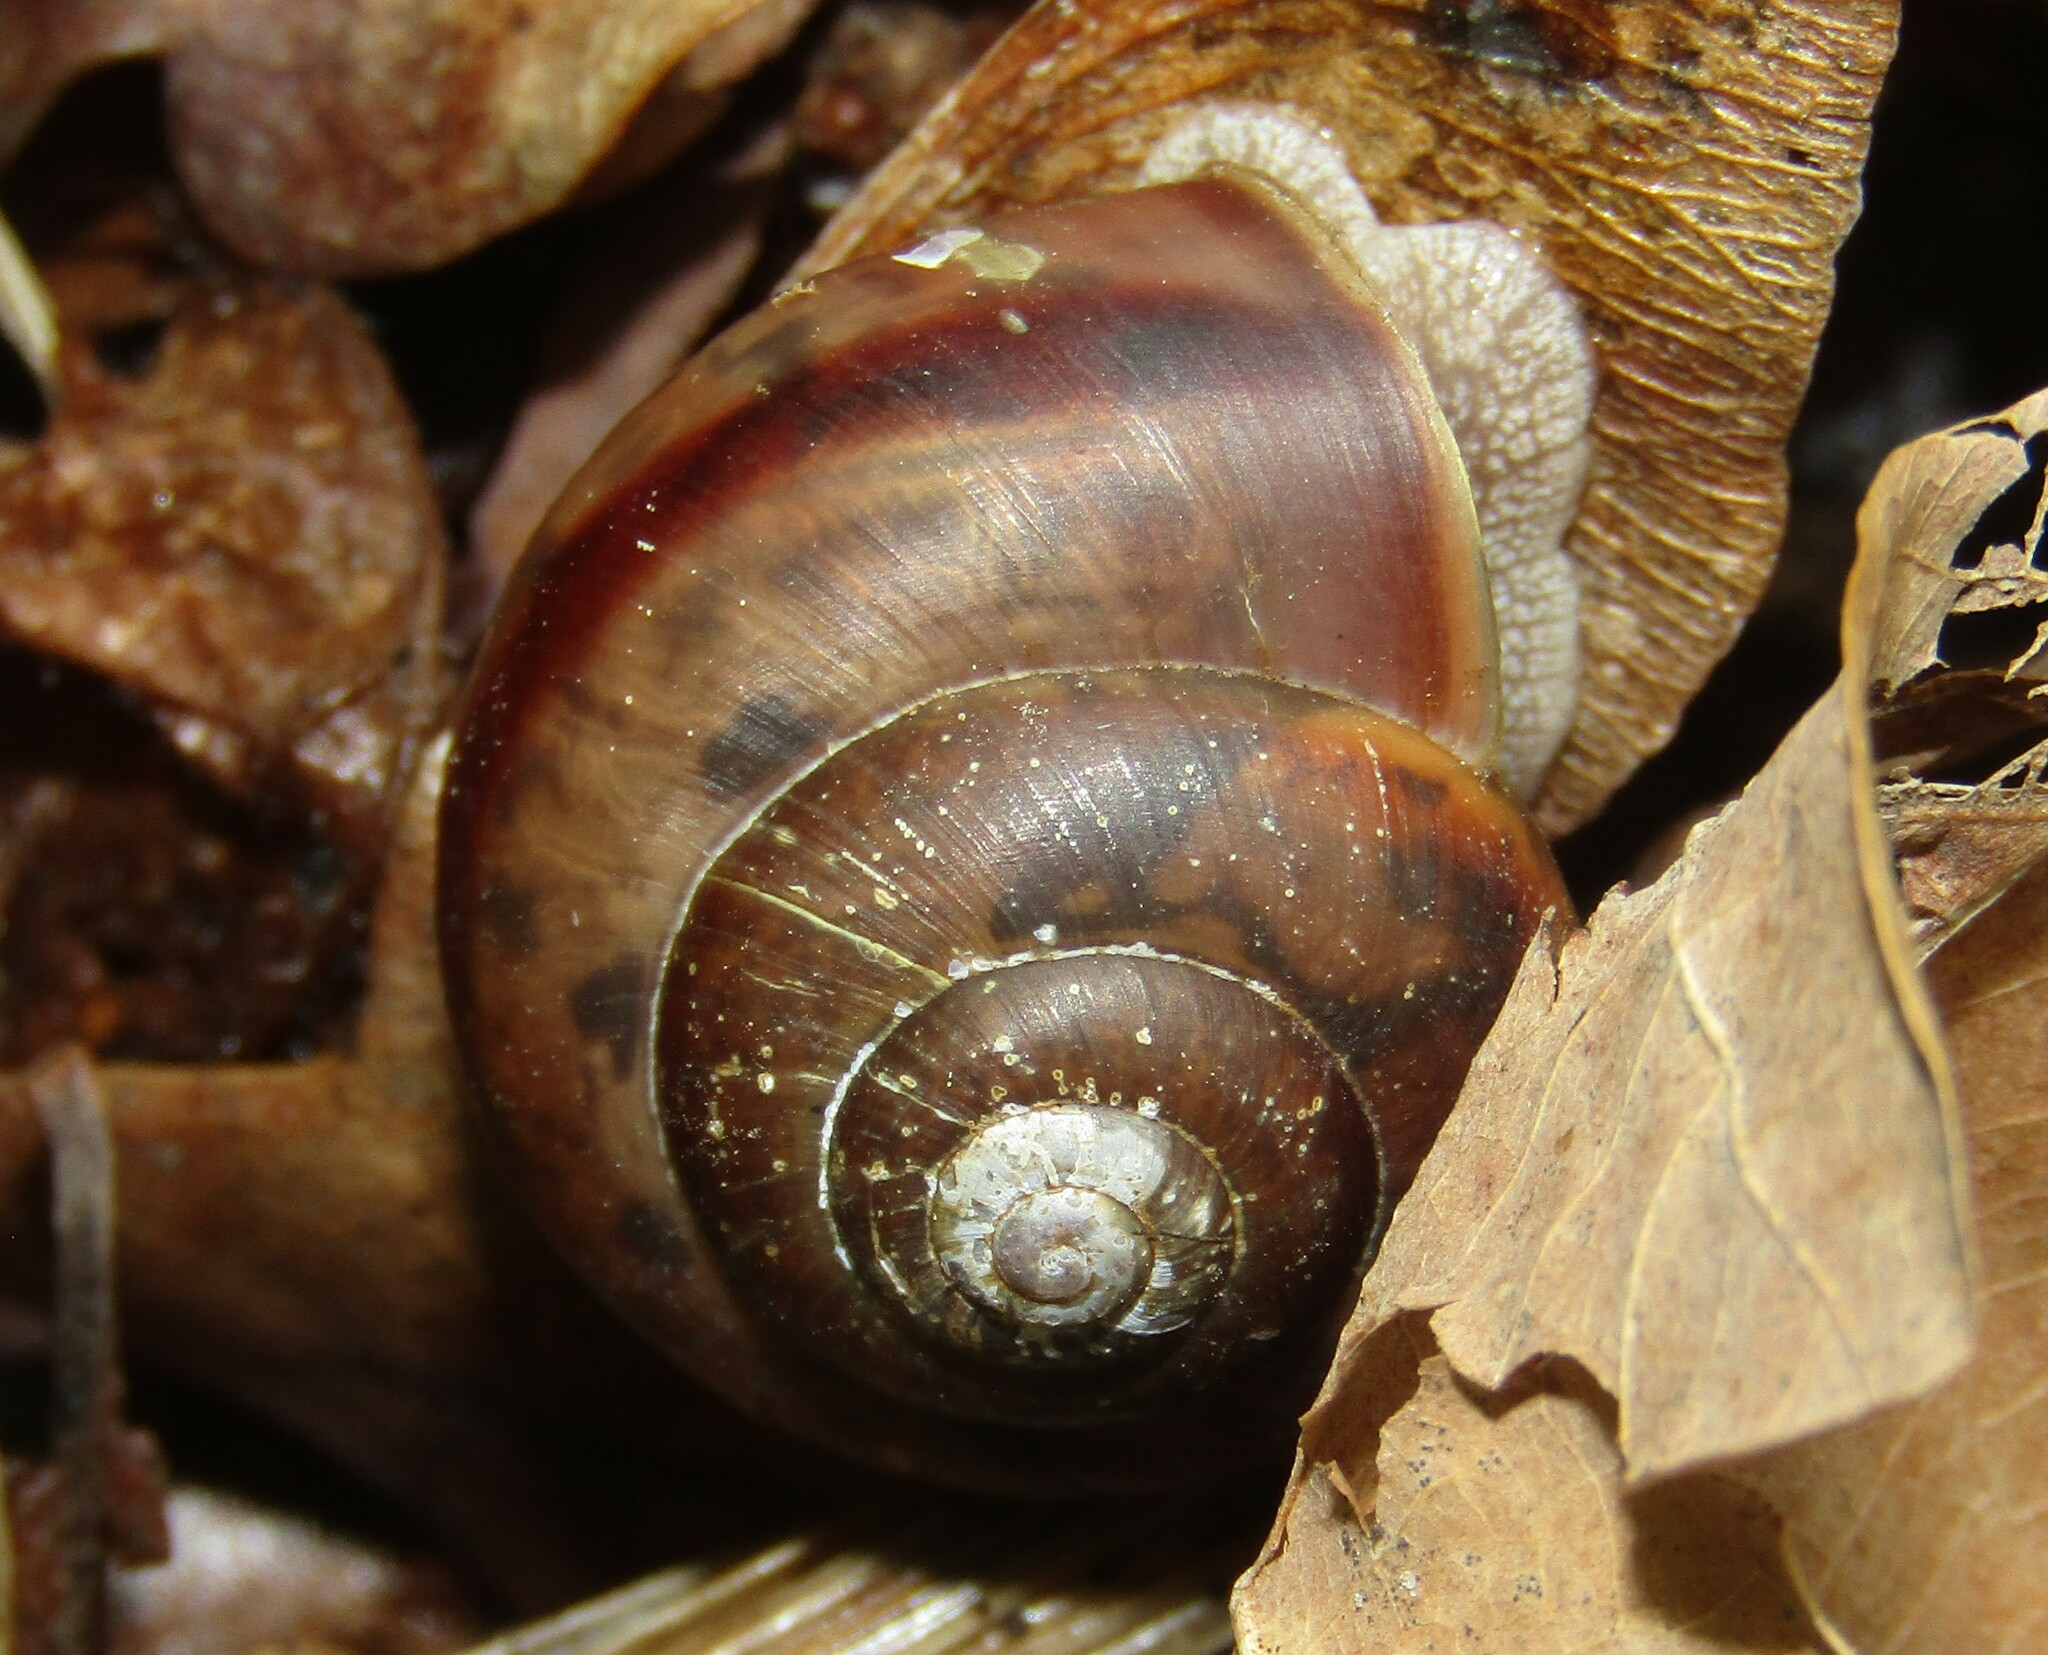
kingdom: Animalia
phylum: Mollusca
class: Gastropoda
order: Stylommatophora
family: Camaenidae
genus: Fruticicola
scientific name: Fruticicola fruticum
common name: Bush snail
